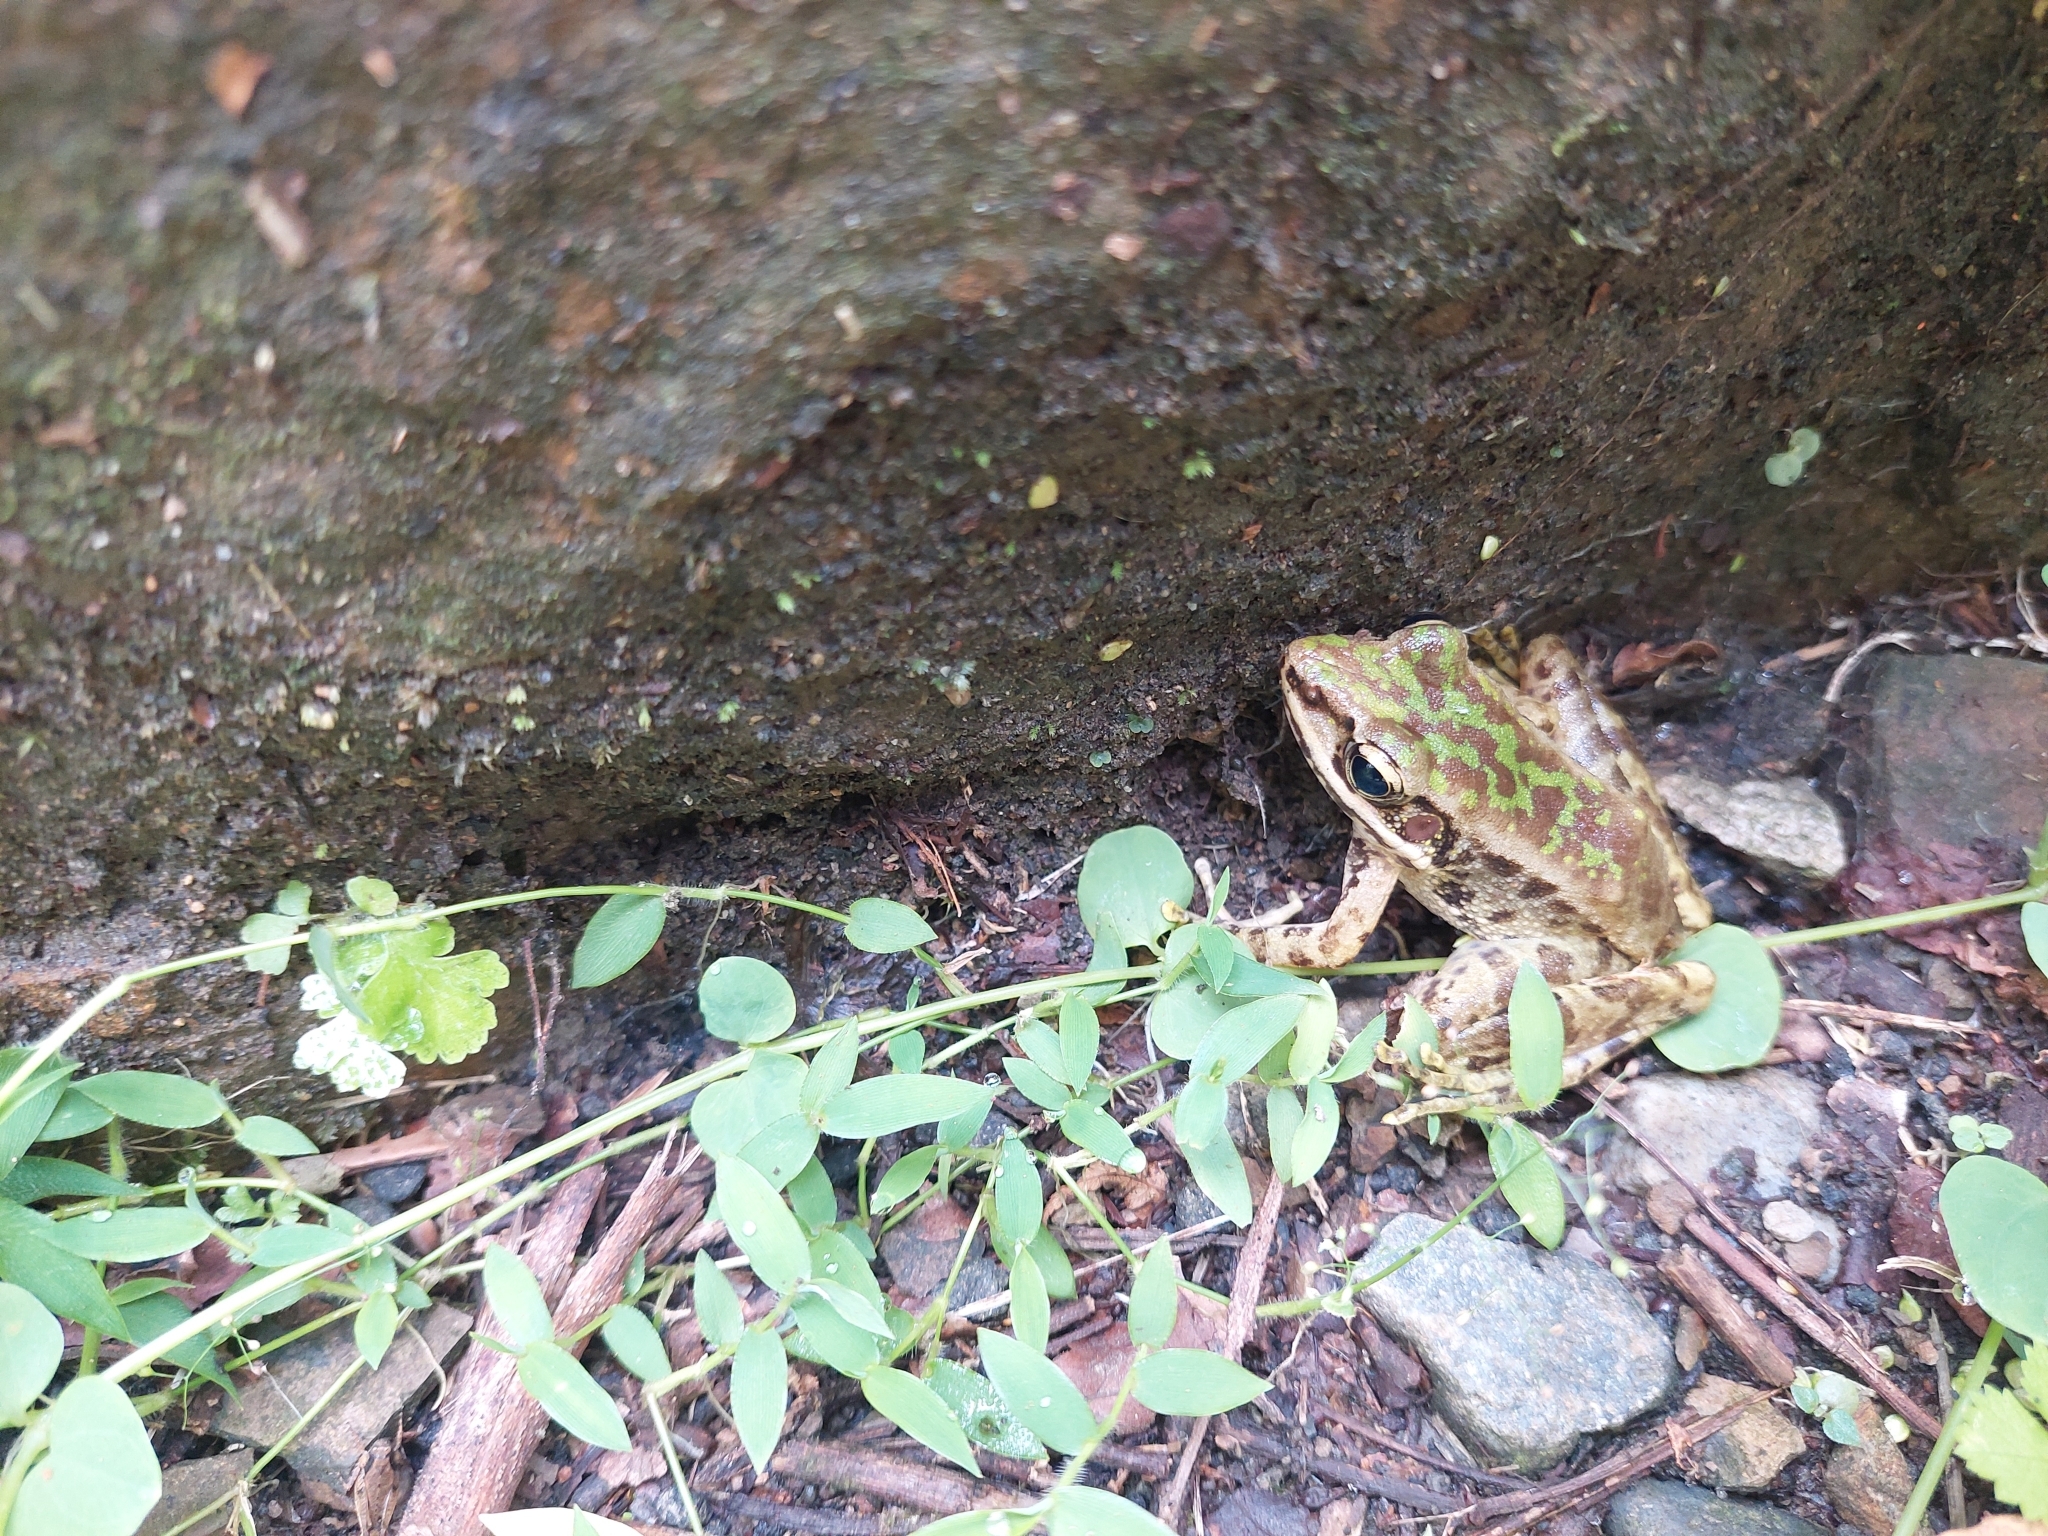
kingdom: Animalia
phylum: Chordata
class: Amphibia
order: Anura
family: Ranidae
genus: Odorrana
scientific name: Odorrana swinhoana
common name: Bangkimtsing frog
